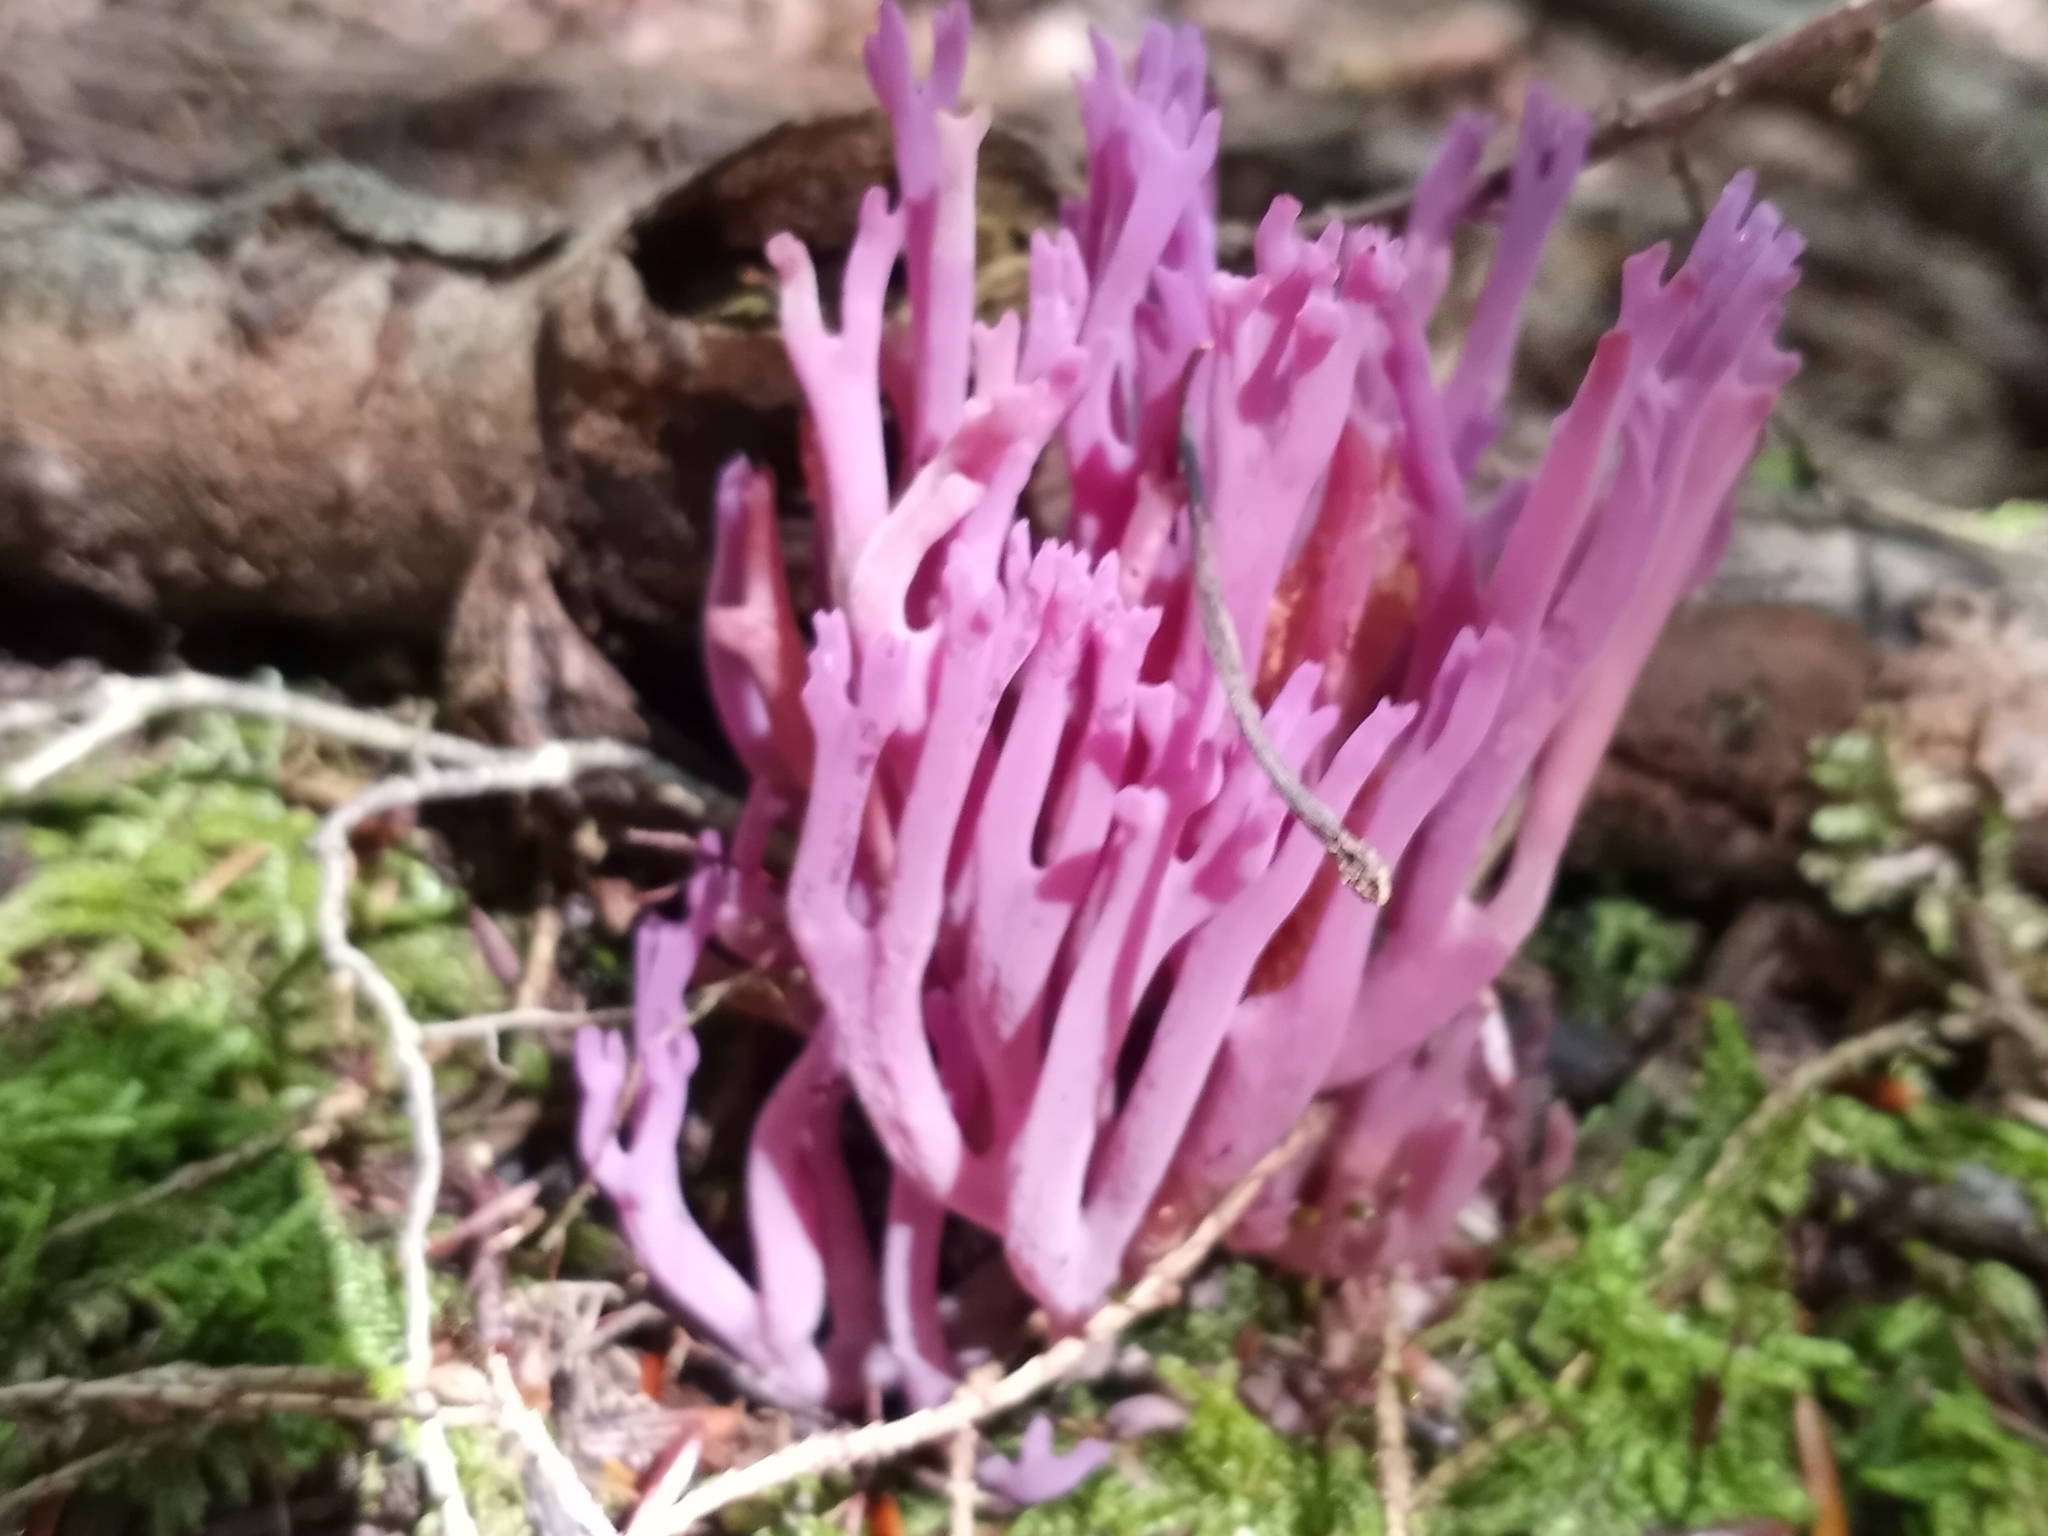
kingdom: Fungi
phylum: Basidiomycota
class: Agaricomycetes
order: Agaricales
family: Clavariaceae
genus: Clavaria
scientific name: Clavaria zollingeri
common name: Violet coral
